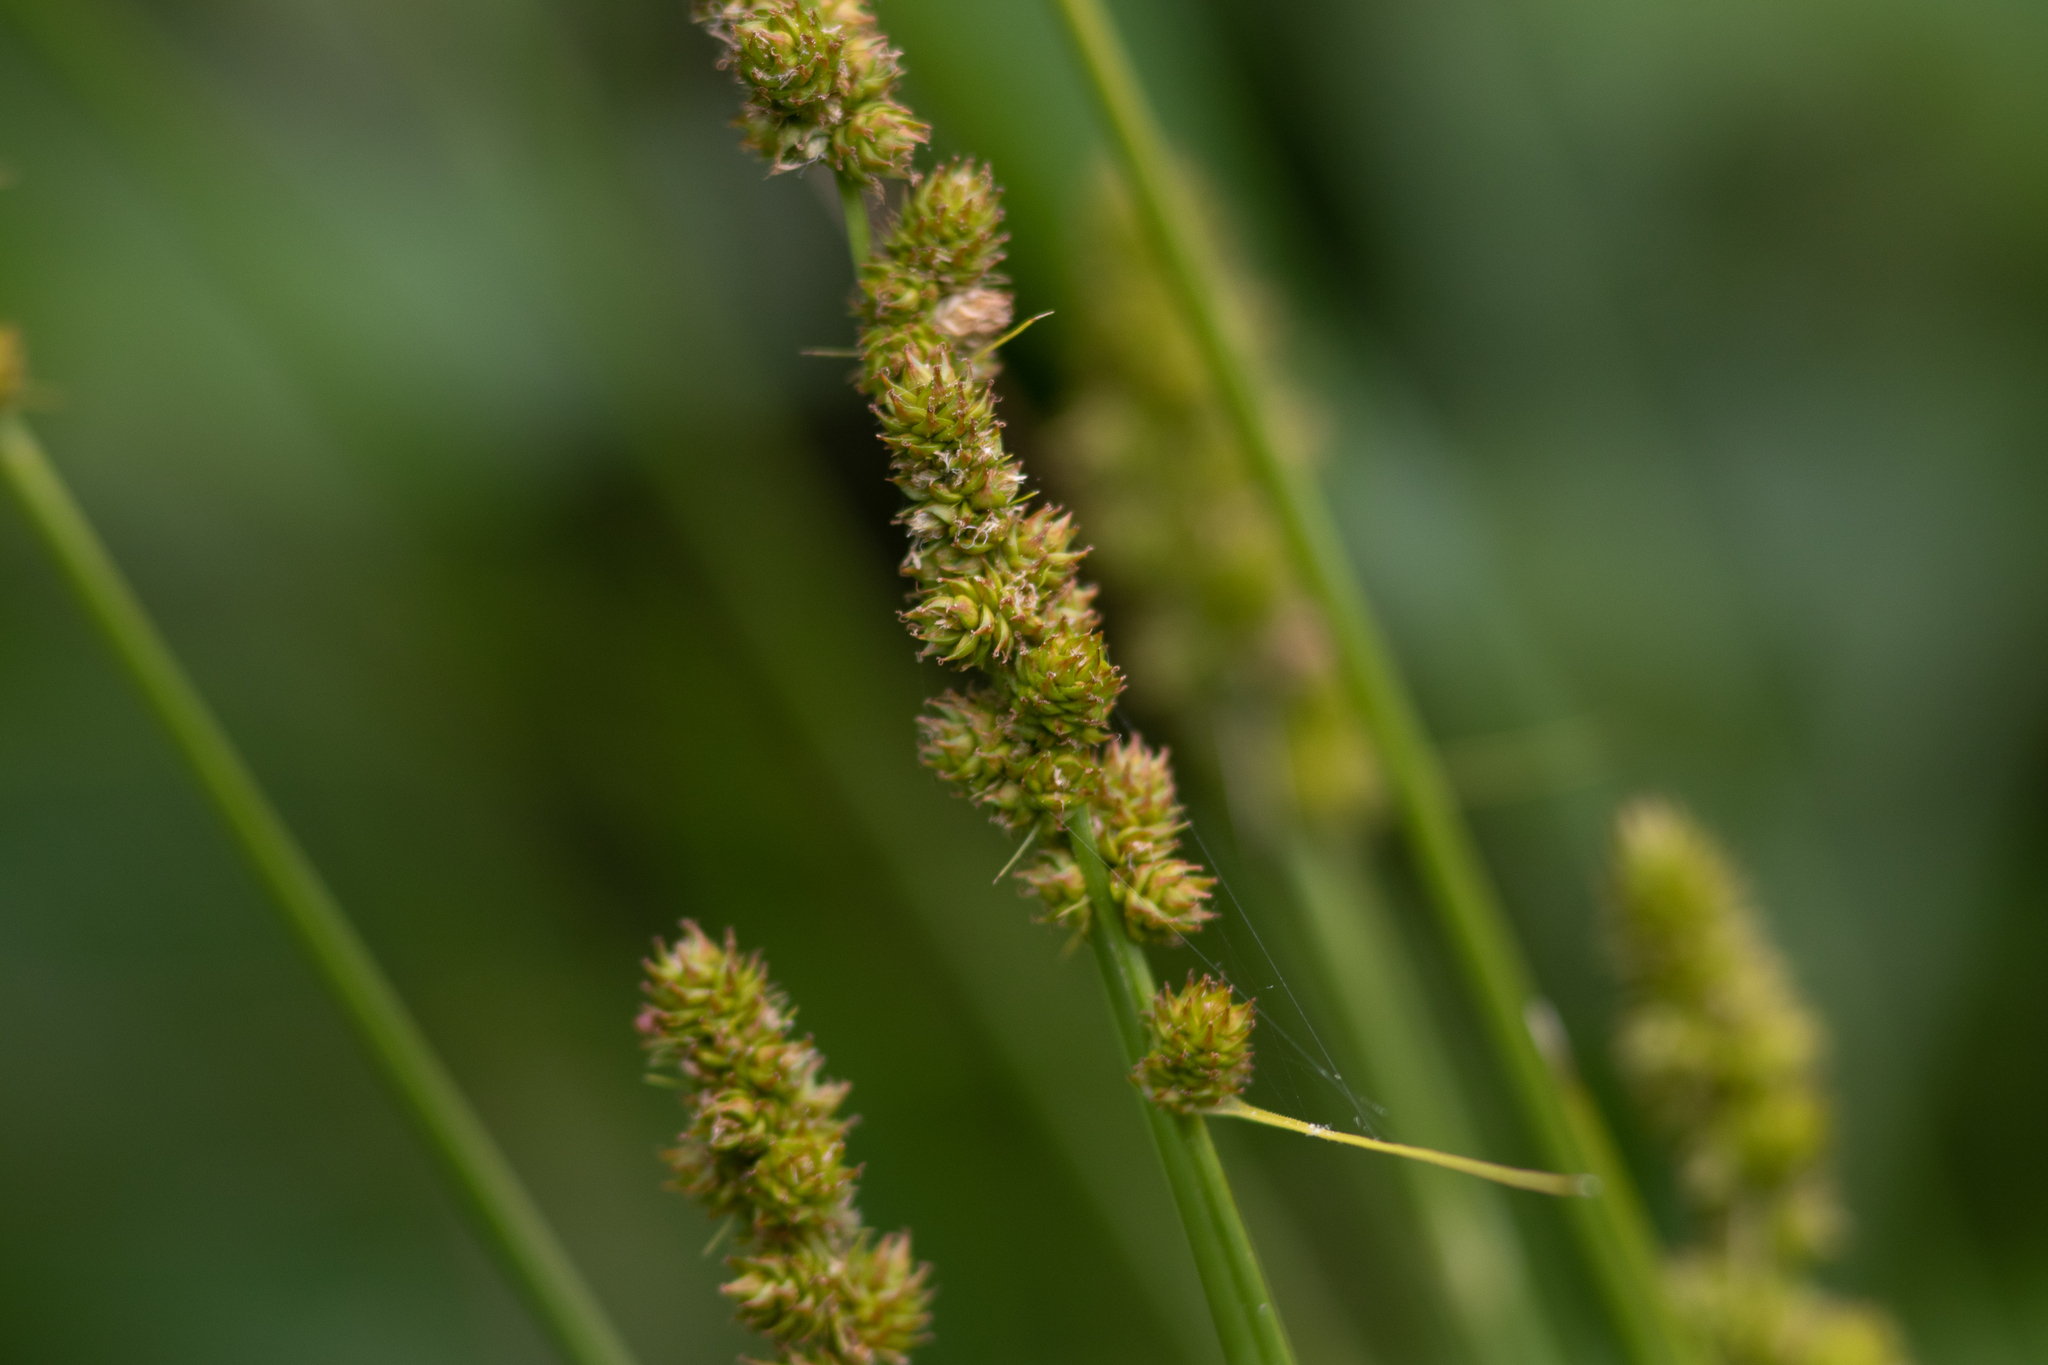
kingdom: Plantae
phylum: Tracheophyta
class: Liliopsida
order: Poales
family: Cyperaceae
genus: Carex
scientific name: Carex annectens
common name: Large fox sedge
